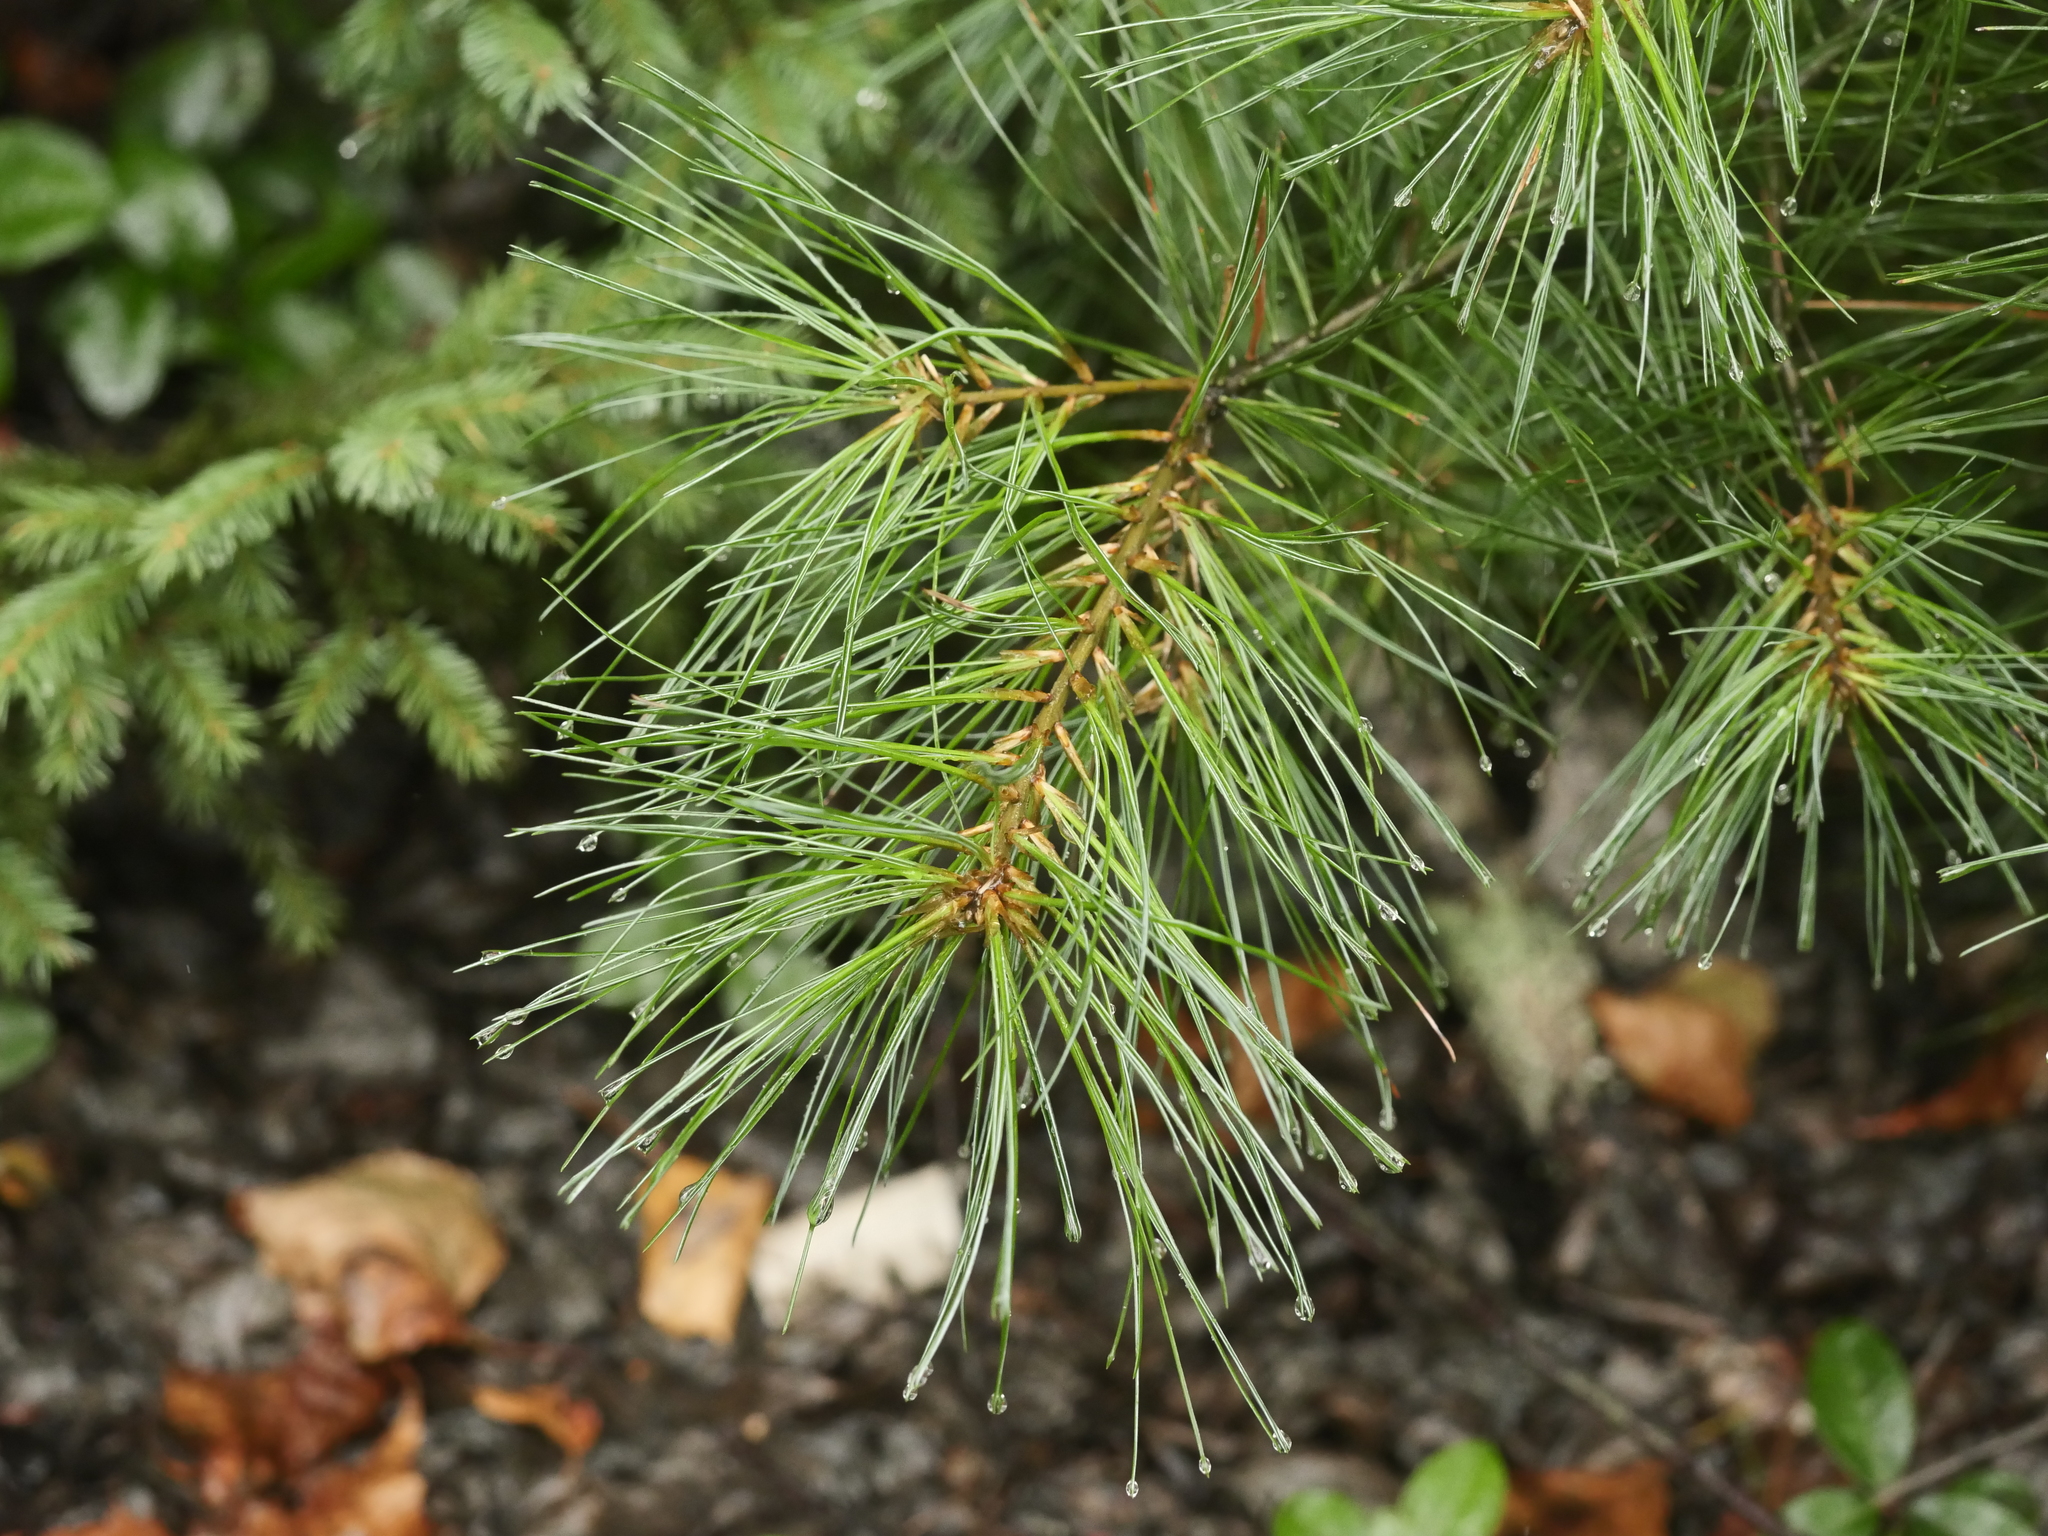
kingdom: Plantae
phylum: Tracheophyta
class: Pinopsida
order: Pinales
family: Pinaceae
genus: Pinus
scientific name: Pinus strobus
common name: Weymouth pine
